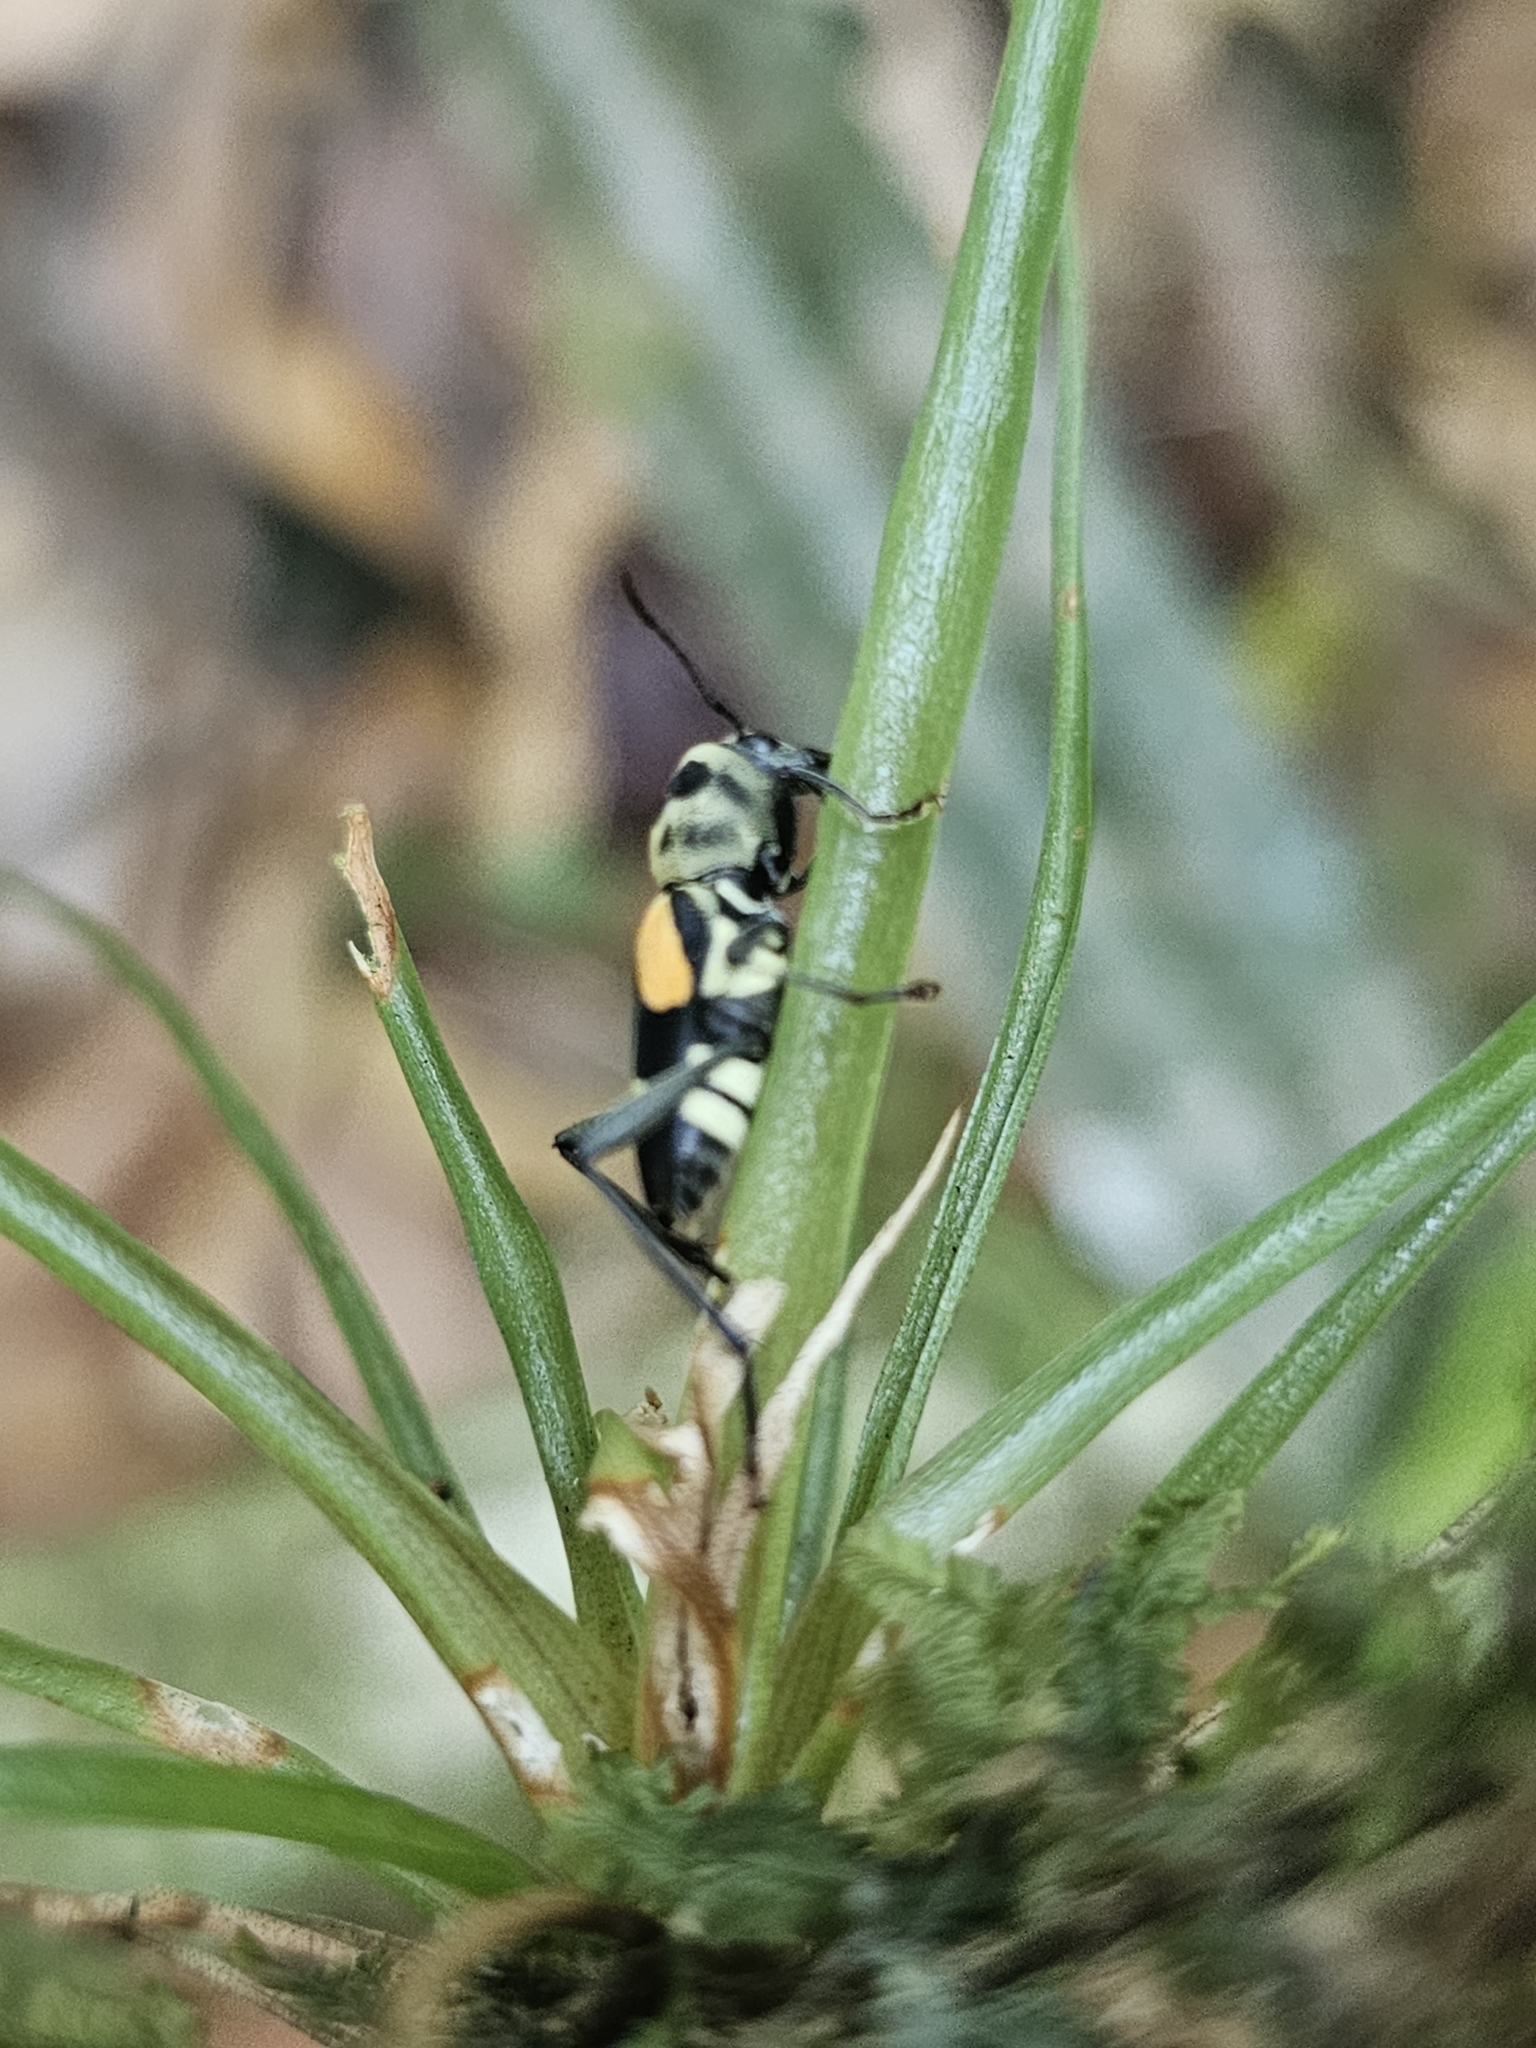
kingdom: Animalia
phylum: Arthropoda
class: Insecta
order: Coleoptera
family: Cerambycidae
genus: Mecometopus
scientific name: Mecometopus aurantisignatus
